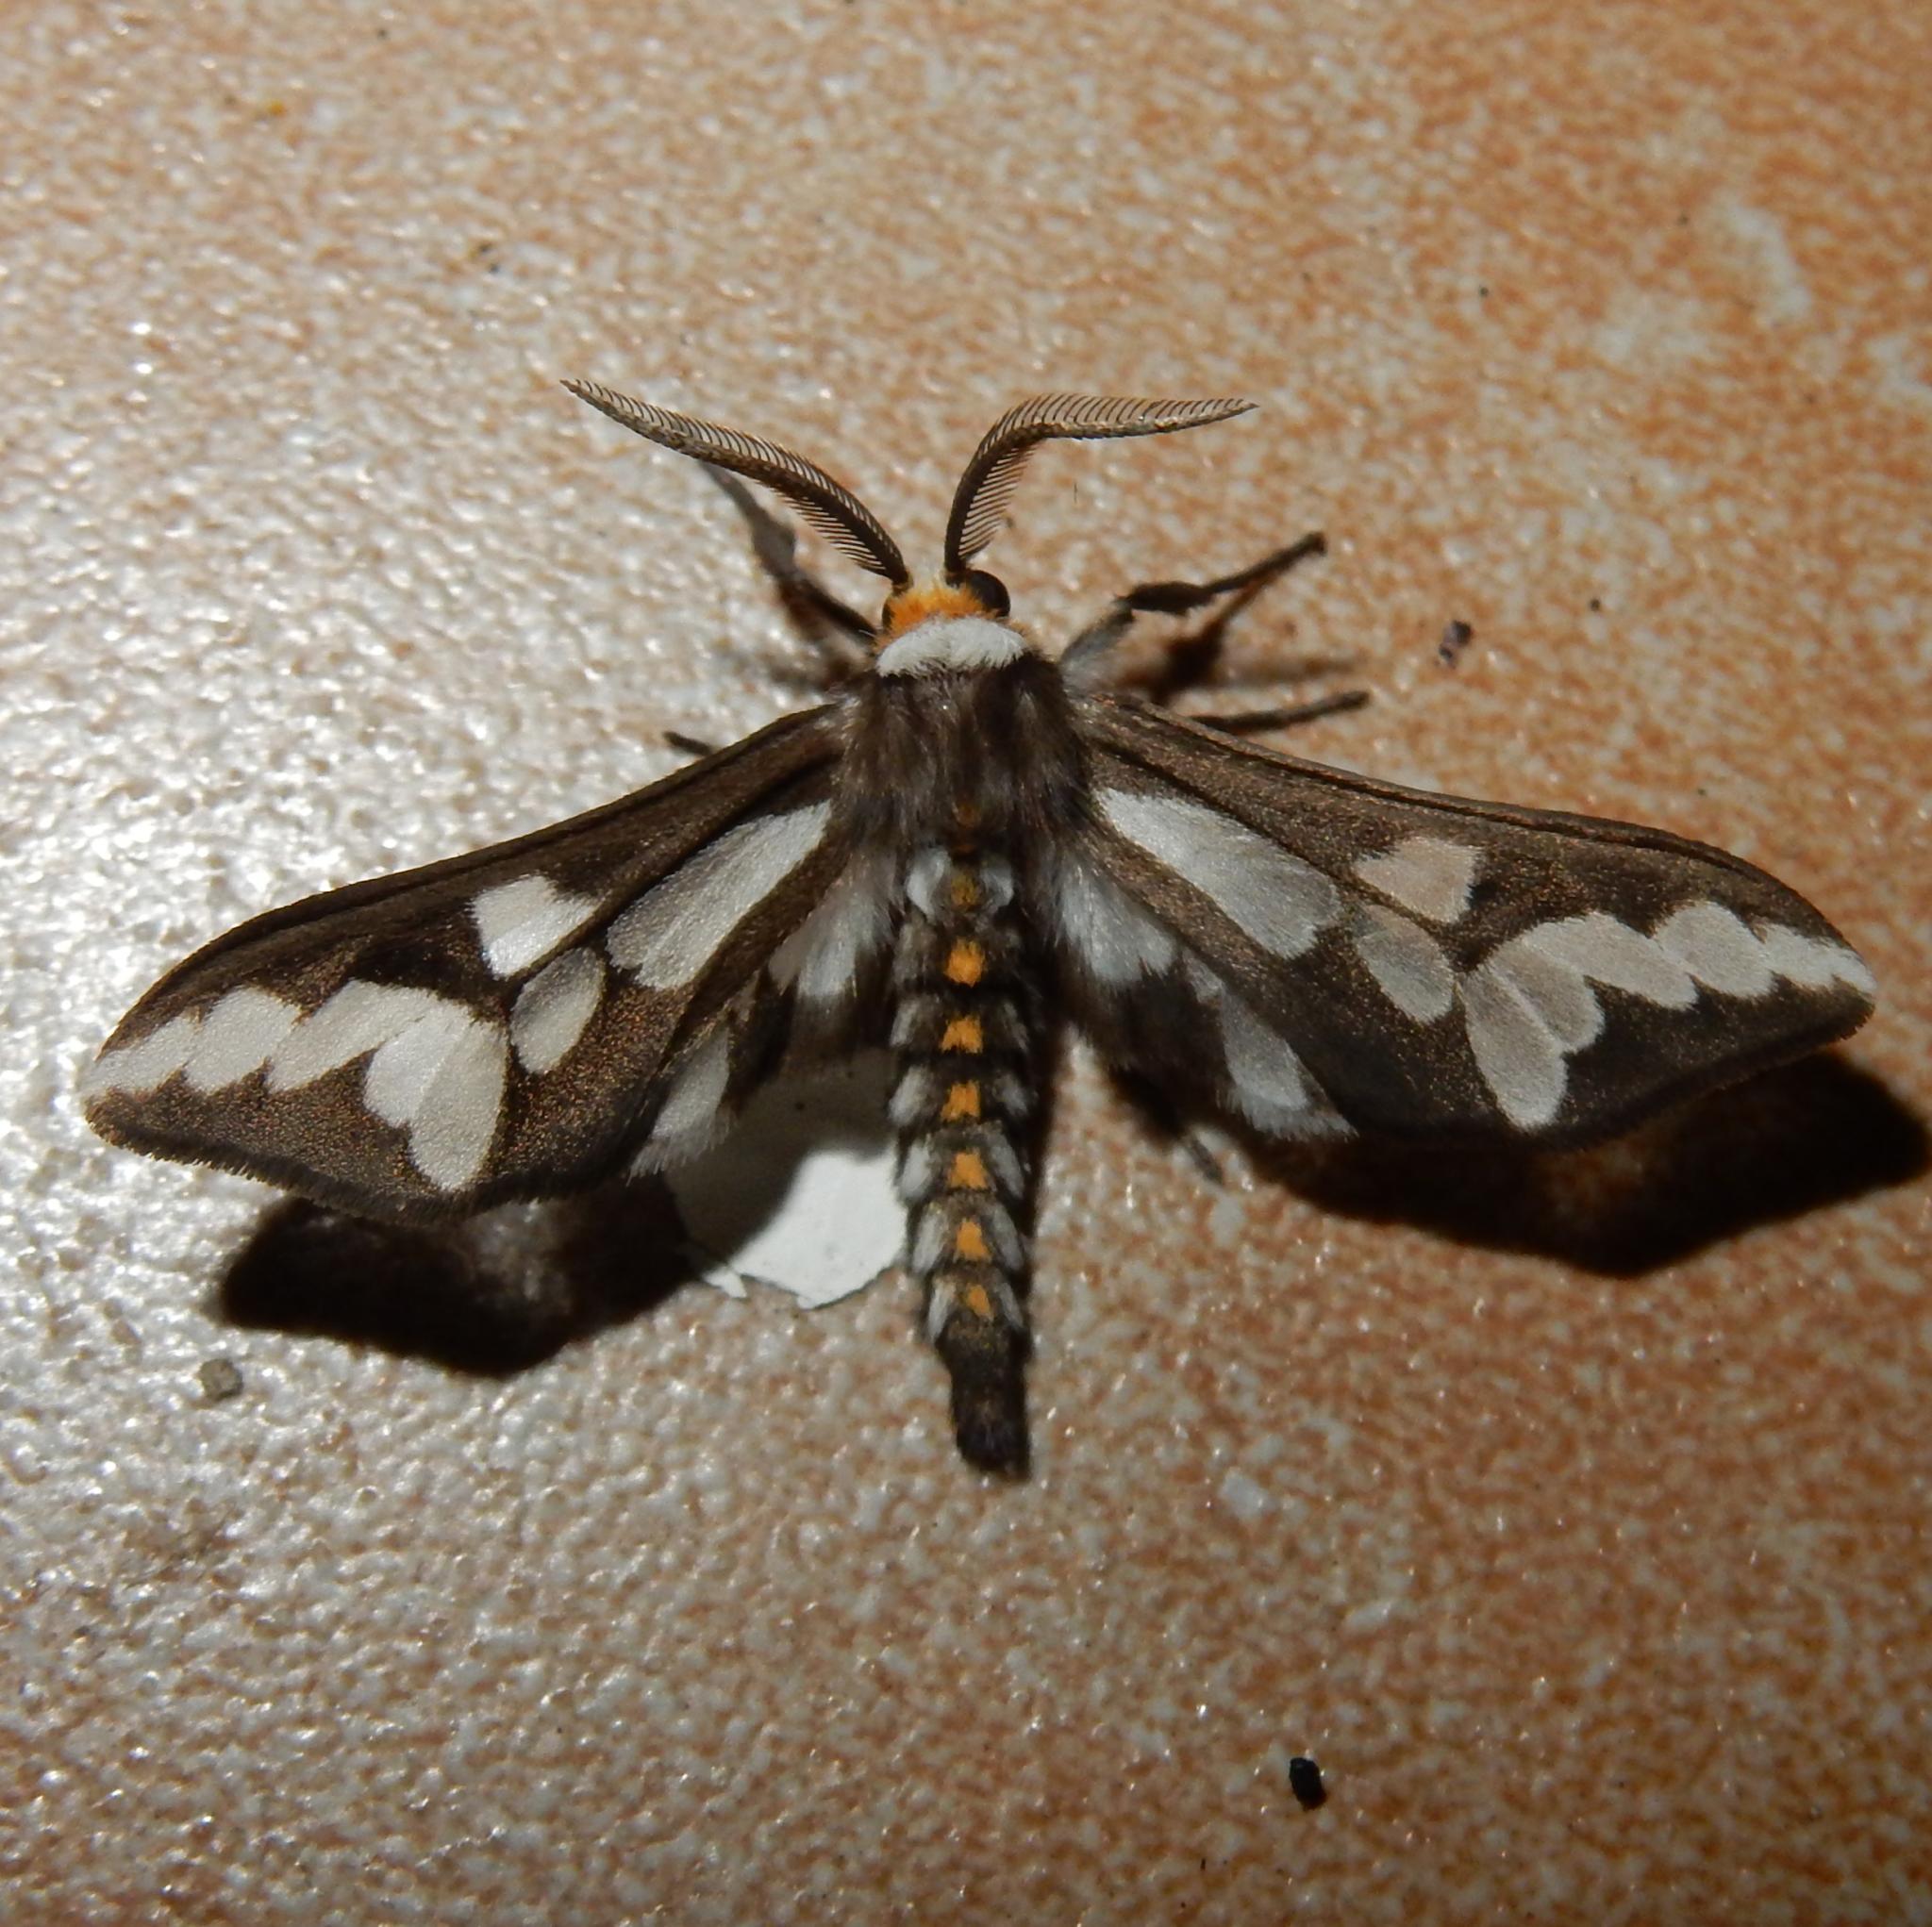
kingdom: Animalia
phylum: Arthropoda
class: Insecta
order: Lepidoptera
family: Erebidae
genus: Thyretes
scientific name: Thyretes caffra
